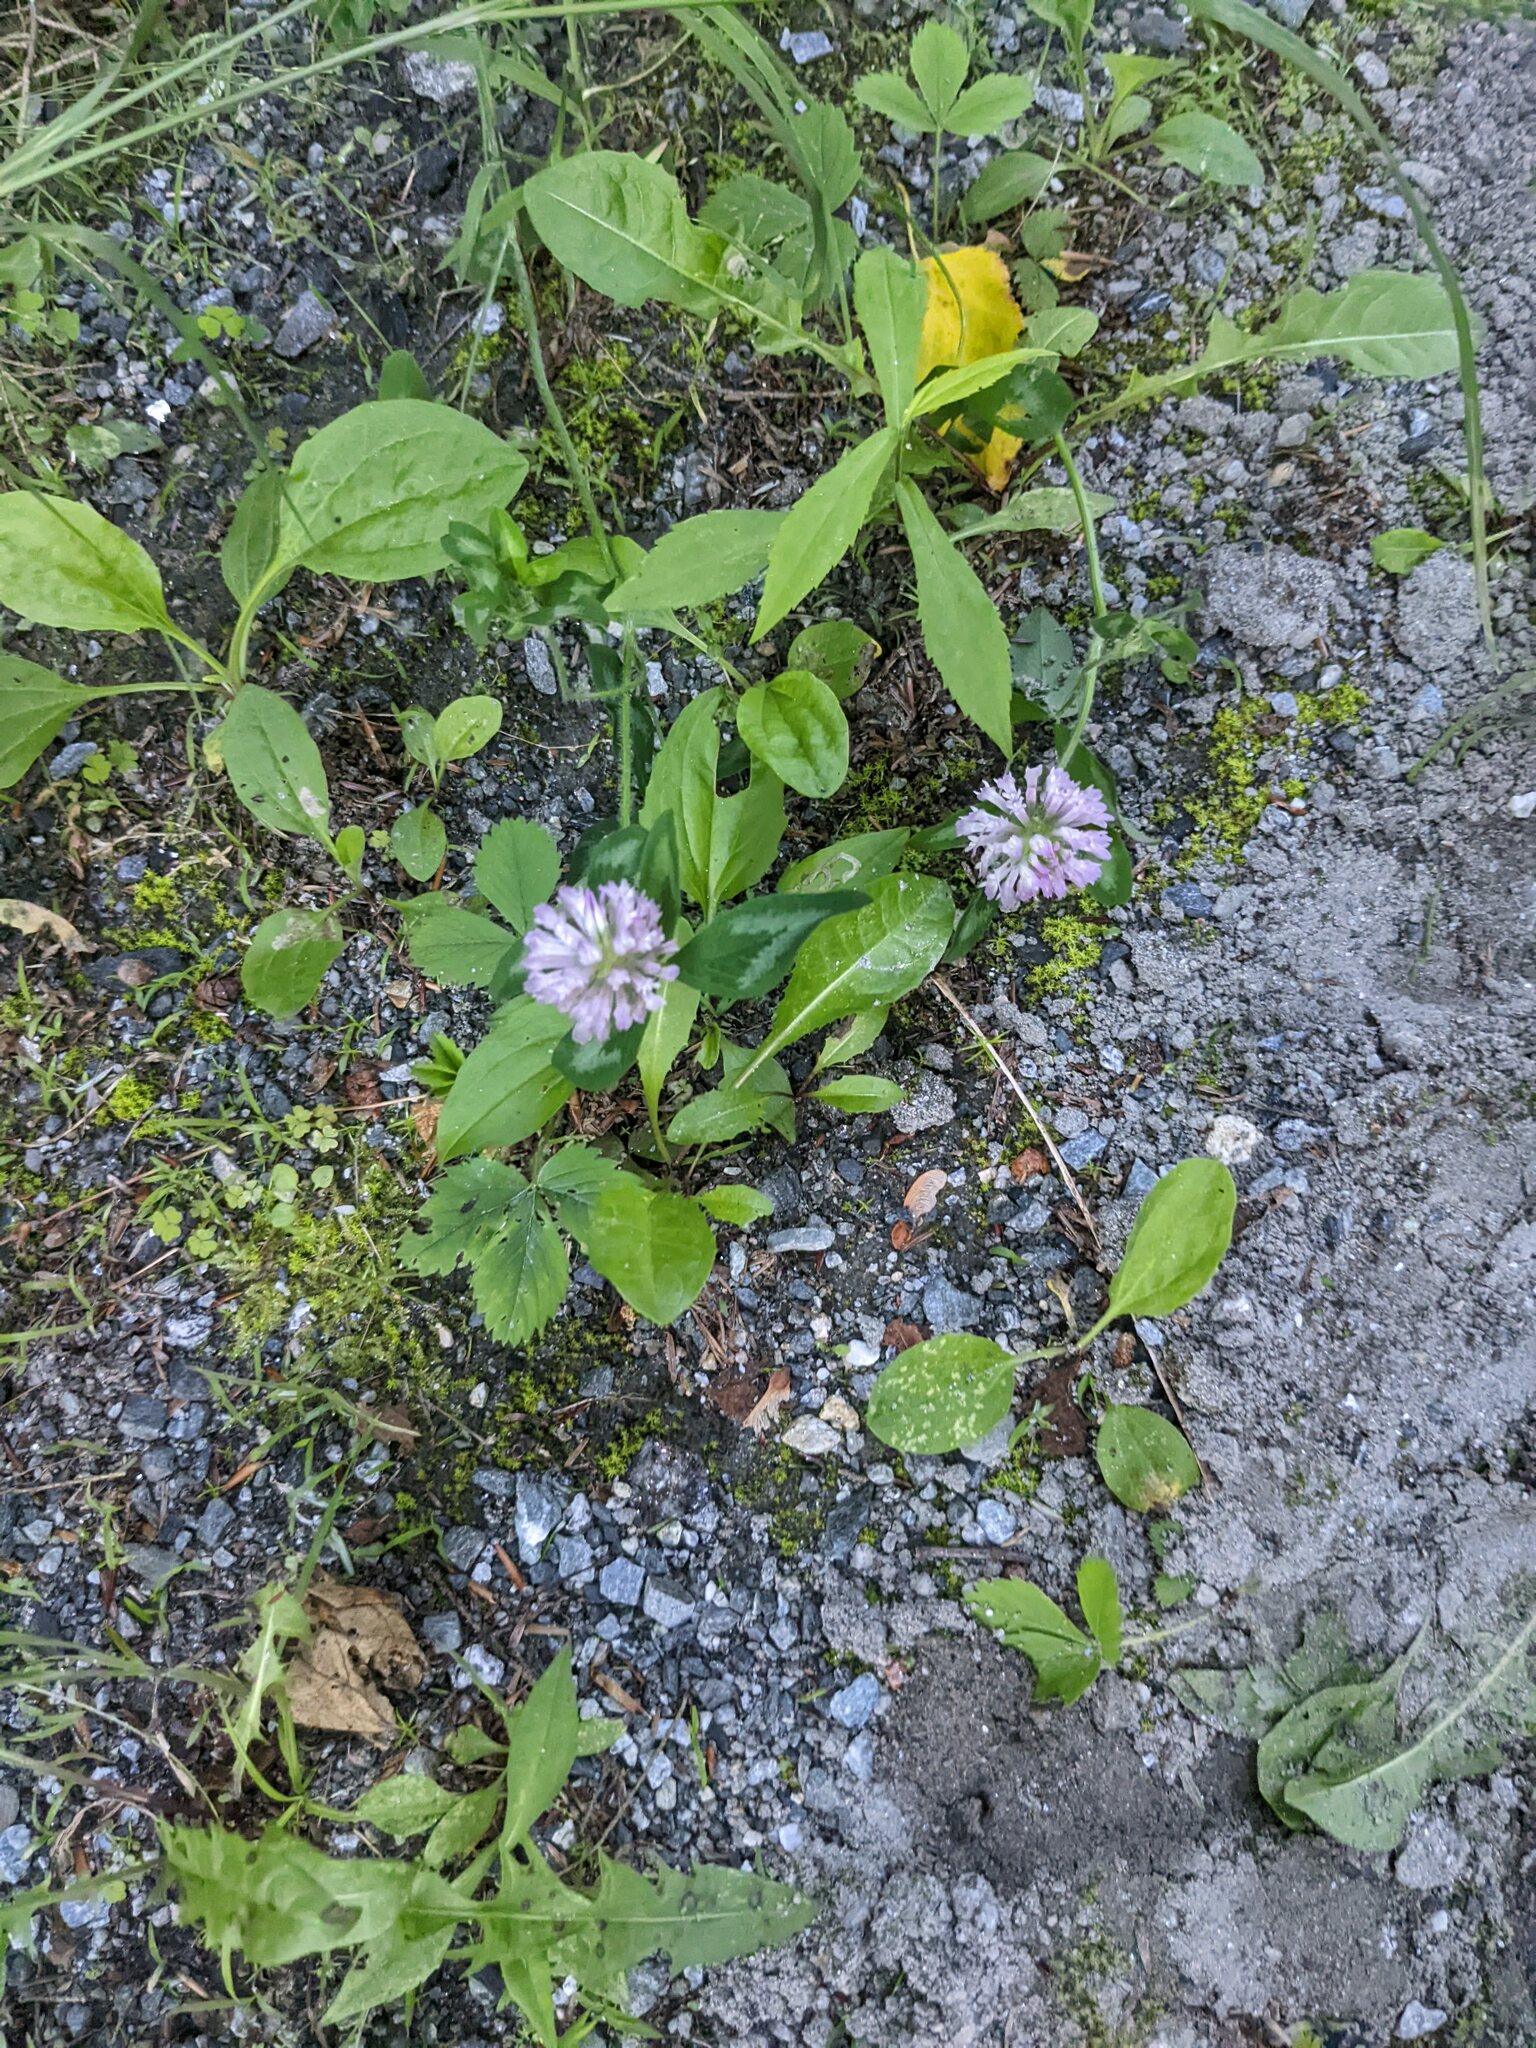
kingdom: Plantae
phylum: Tracheophyta
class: Magnoliopsida
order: Fabales
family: Fabaceae
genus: Trifolium
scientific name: Trifolium pratense
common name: Red clover
